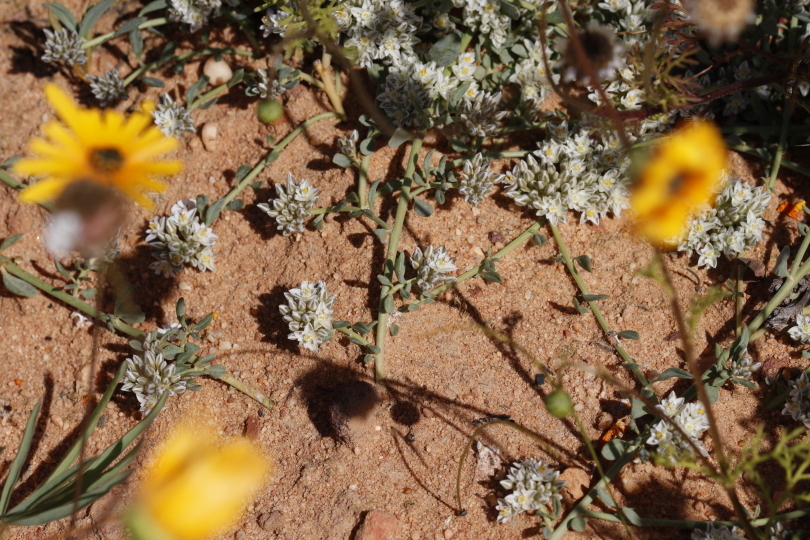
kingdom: Plantae
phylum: Tracheophyta
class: Magnoliopsida
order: Caryophyllales
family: Limeaceae
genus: Limeum
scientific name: Limeum africanum
